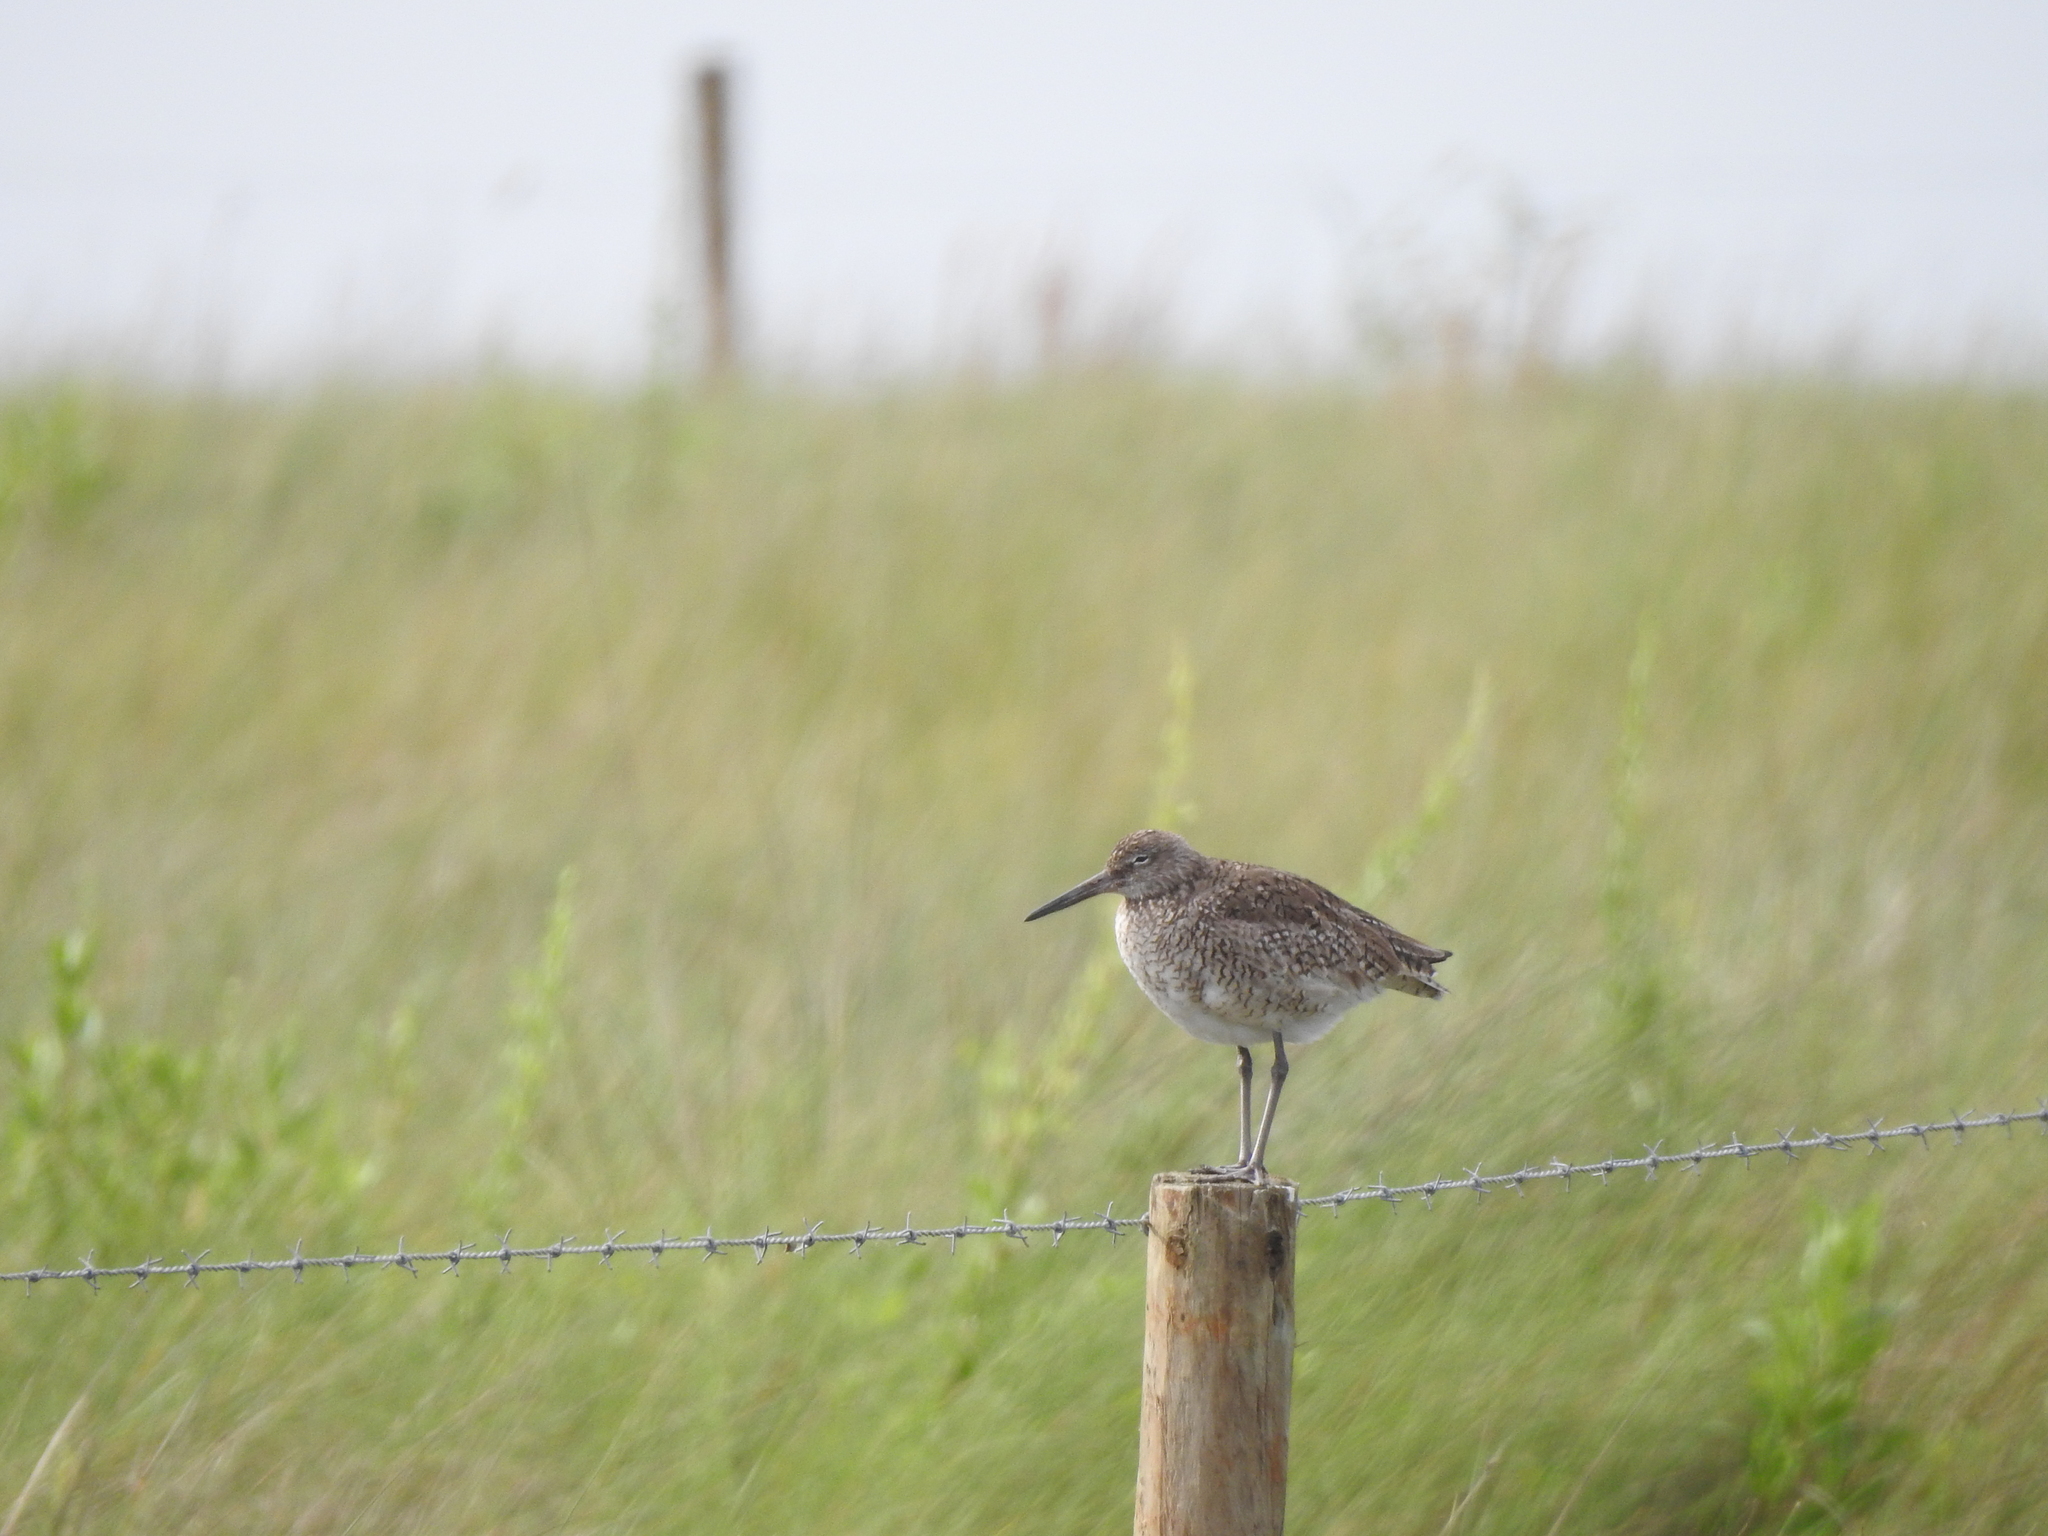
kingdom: Animalia
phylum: Chordata
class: Aves
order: Charadriiformes
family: Scolopacidae
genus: Tringa
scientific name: Tringa semipalmata
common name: Willet
